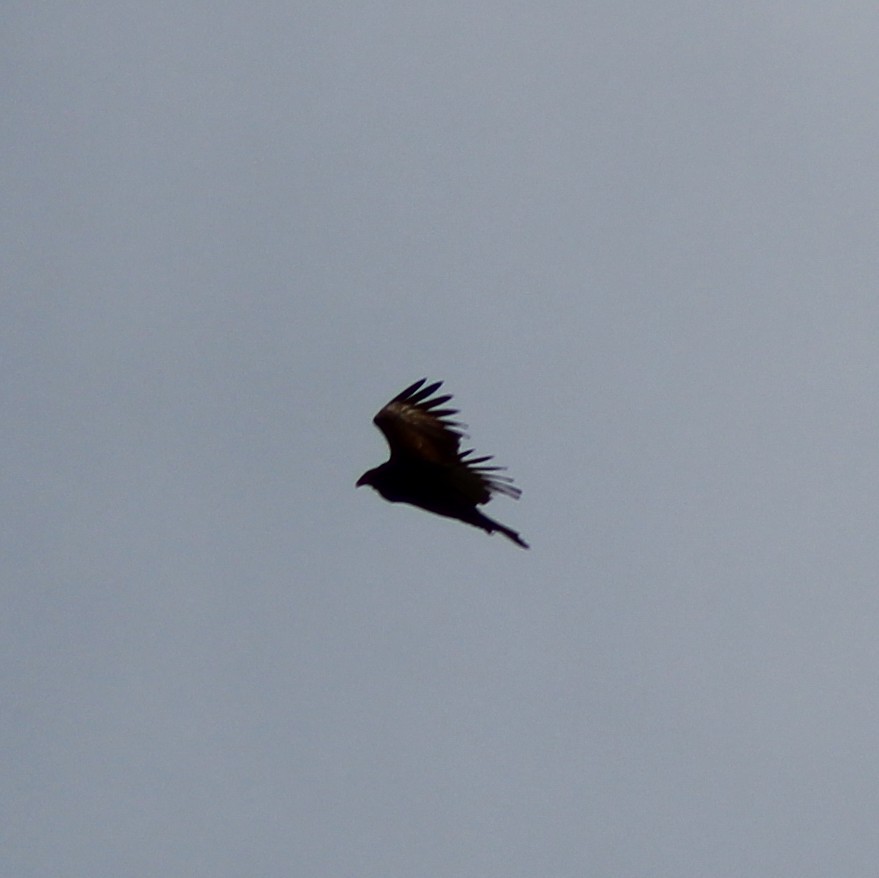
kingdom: Animalia
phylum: Chordata
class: Aves
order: Accipitriformes
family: Cathartidae
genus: Cathartes
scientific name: Cathartes aura
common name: Turkey vulture
